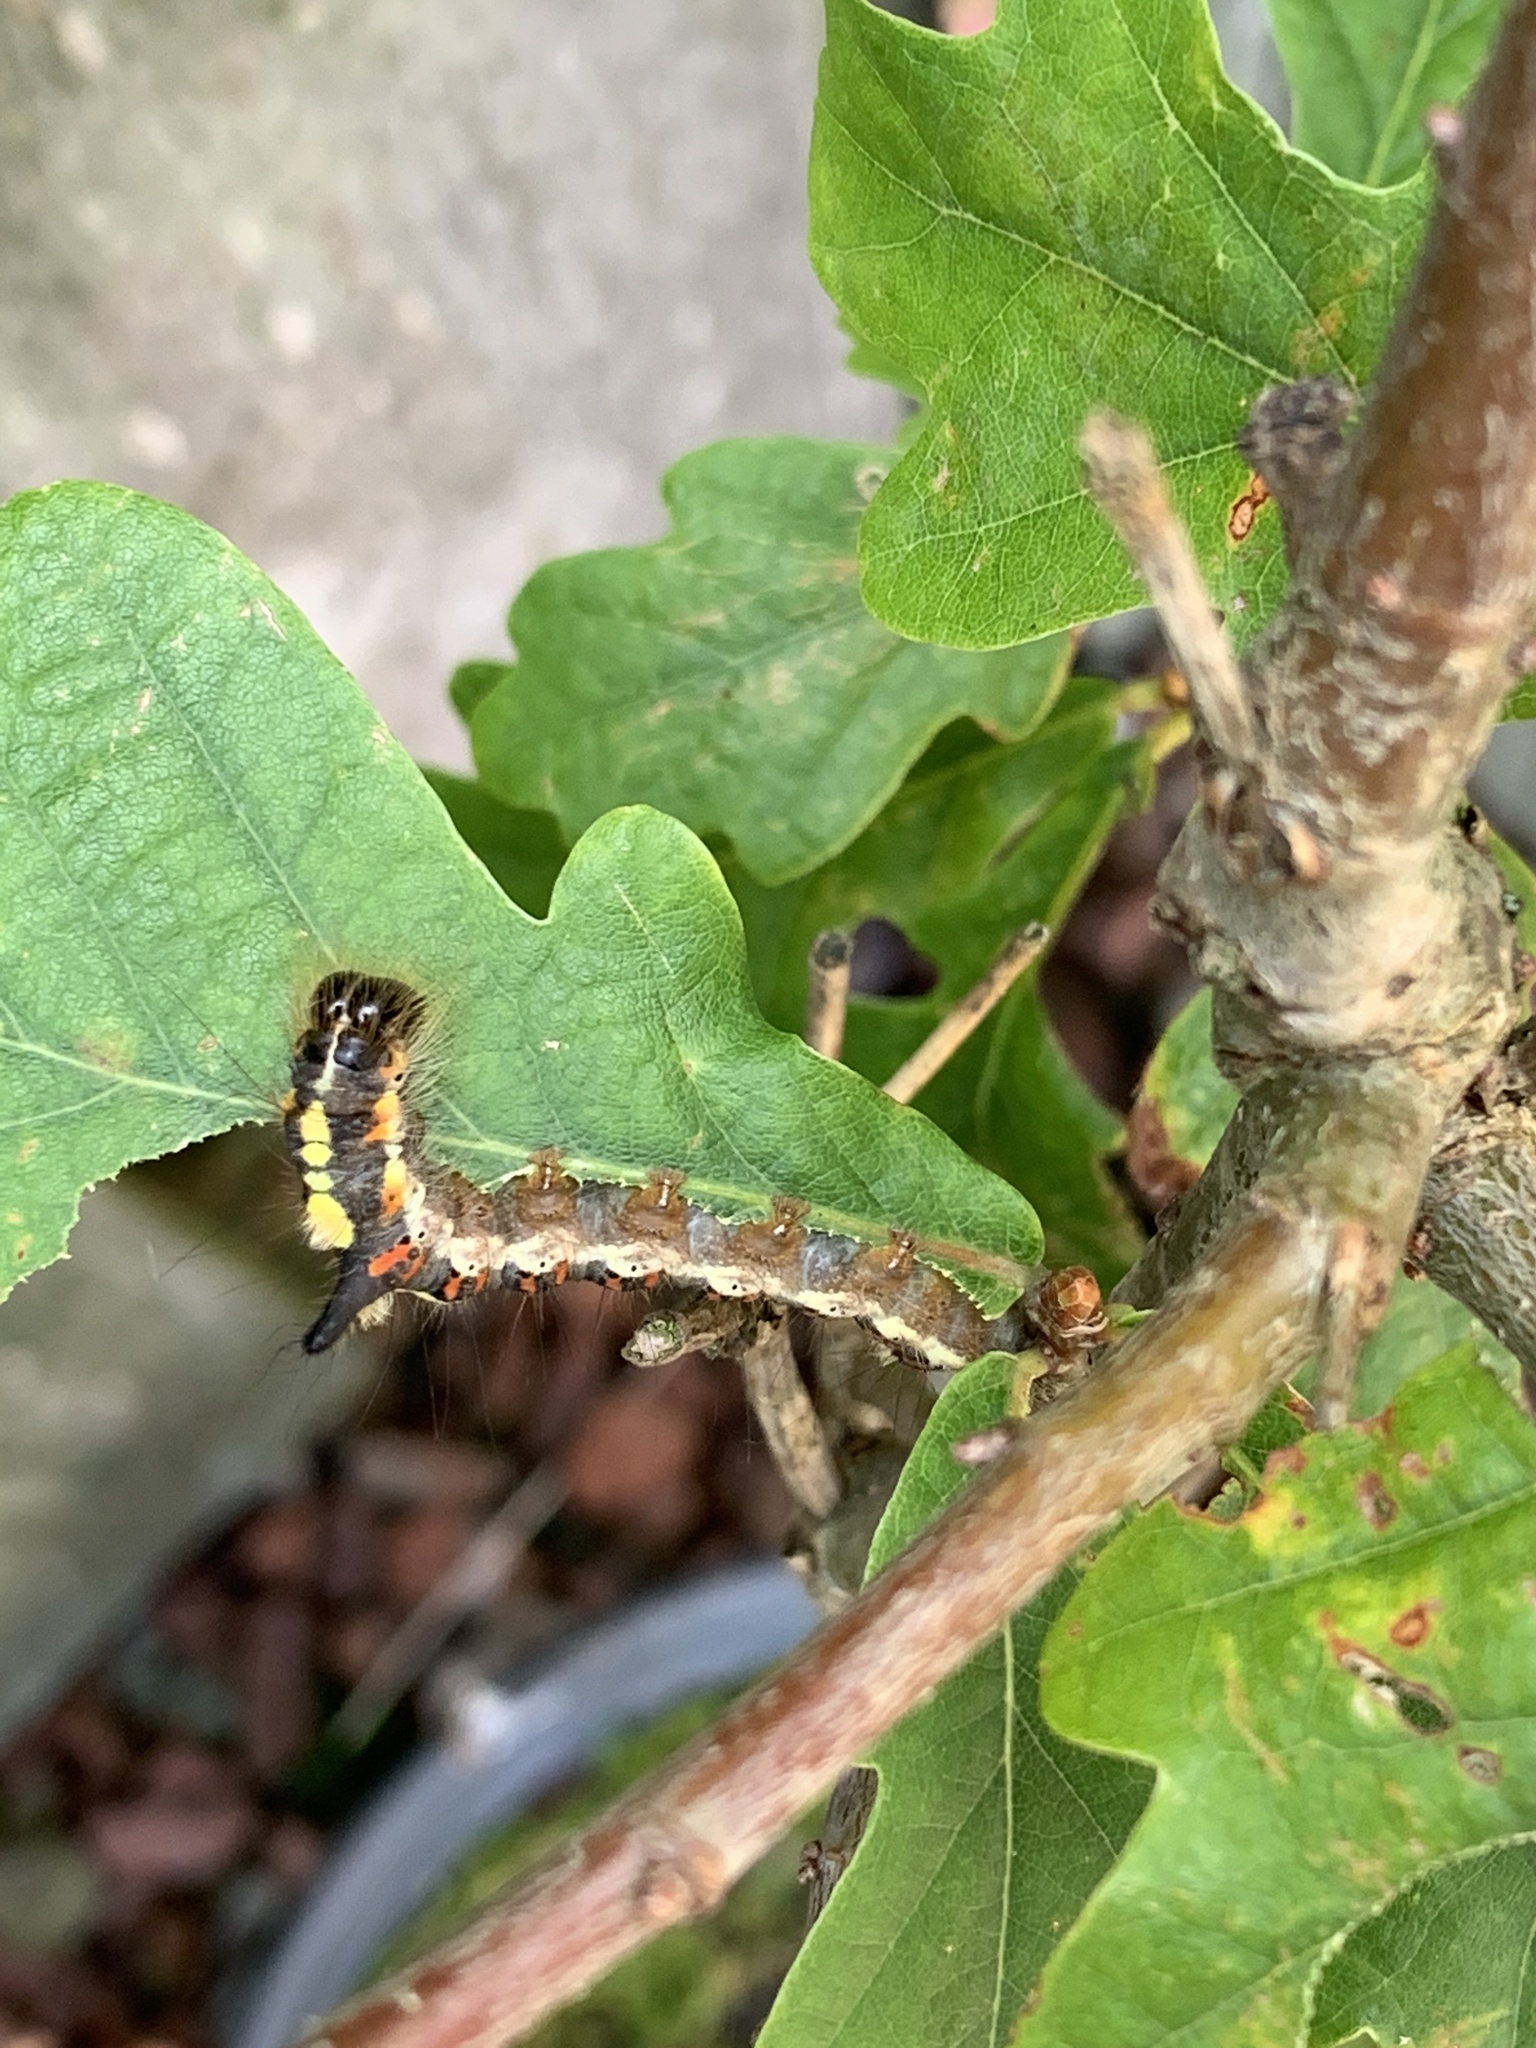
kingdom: Animalia
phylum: Arthropoda
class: Insecta
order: Lepidoptera
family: Noctuidae
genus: Acronicta
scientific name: Acronicta psi
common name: Grey dagger
